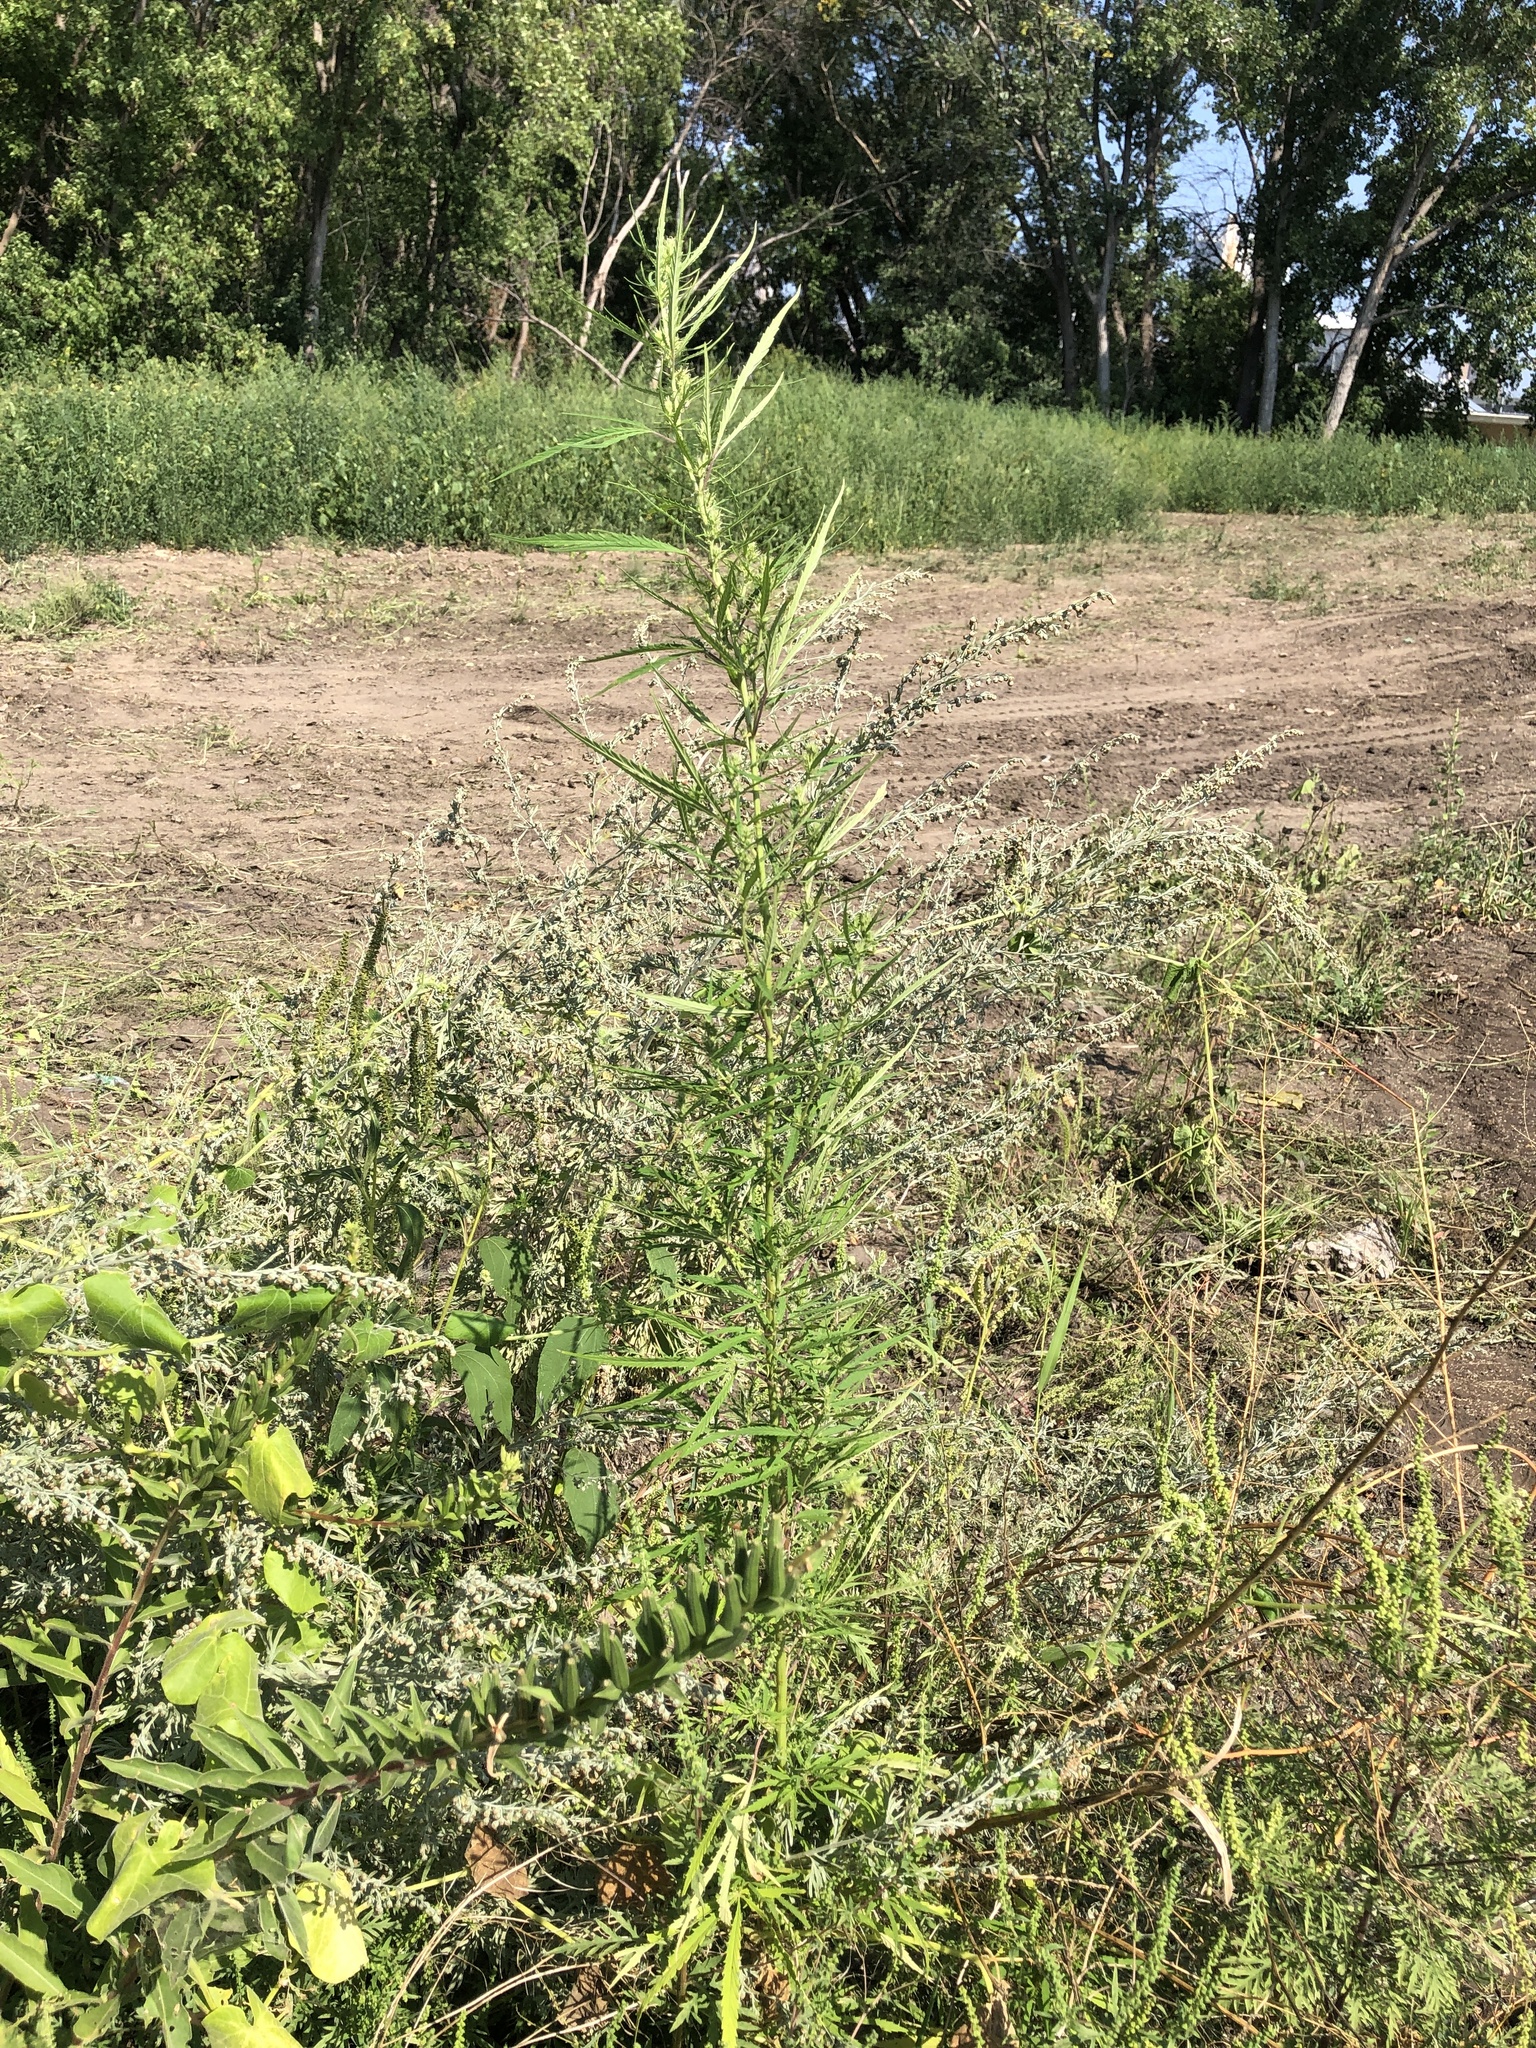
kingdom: Plantae
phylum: Tracheophyta
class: Magnoliopsida
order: Rosales
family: Cannabaceae
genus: Cannabis
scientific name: Cannabis sativa
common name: Hemp
